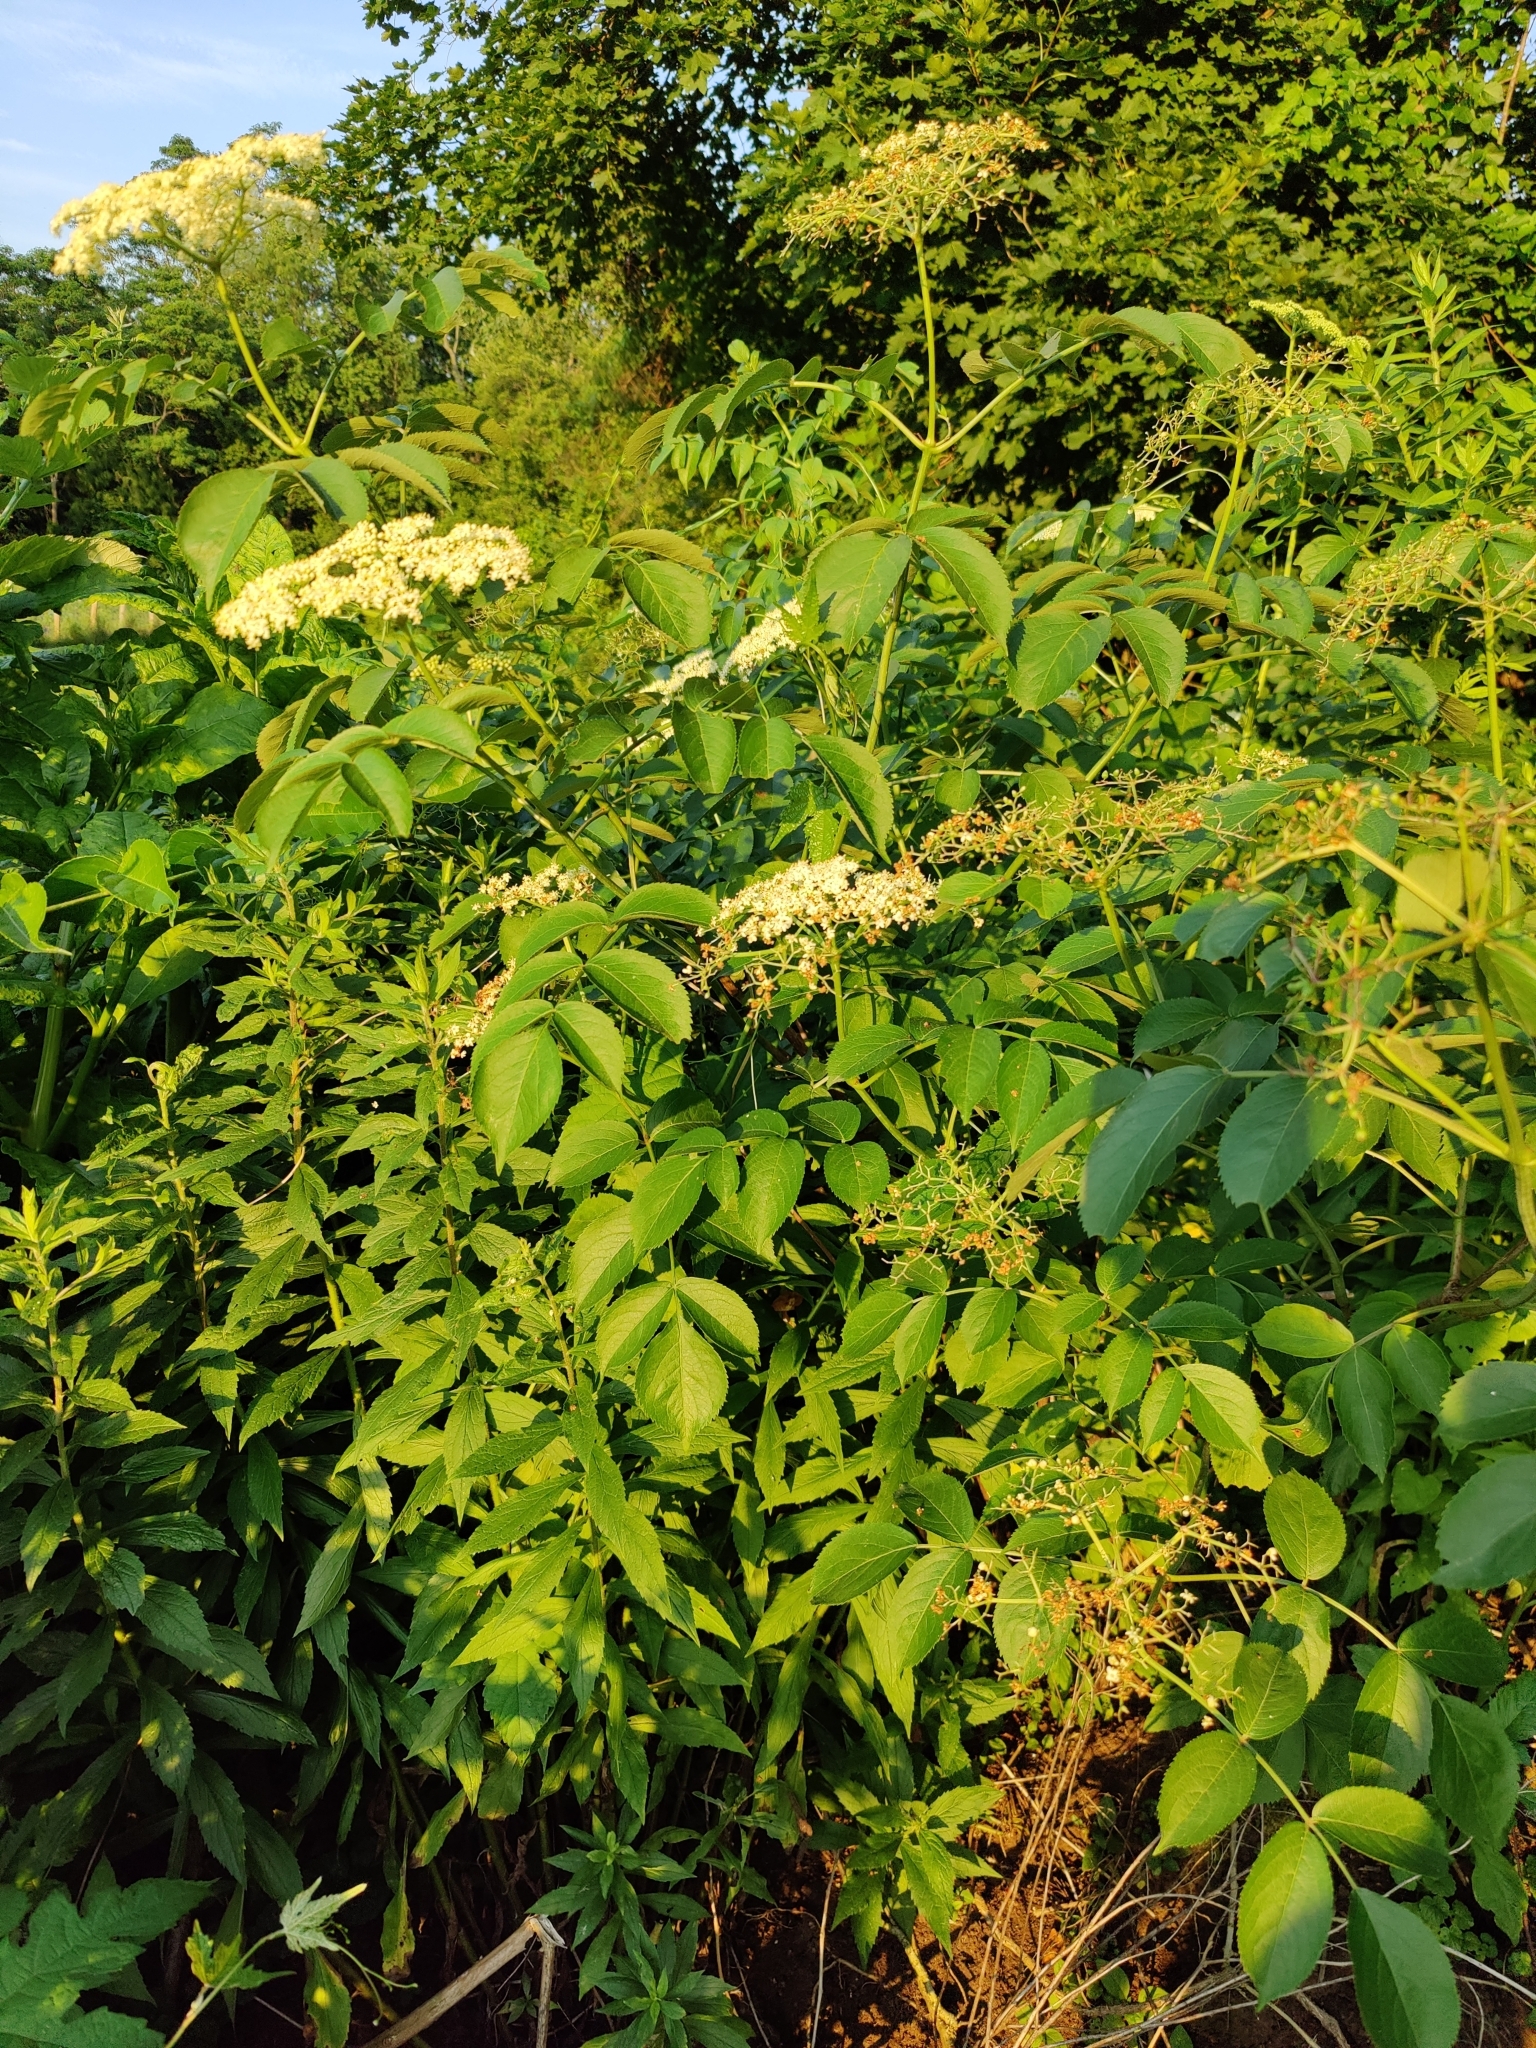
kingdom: Plantae
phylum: Tracheophyta
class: Magnoliopsida
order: Dipsacales
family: Viburnaceae
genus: Sambucus
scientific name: Sambucus canadensis
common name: American elder
